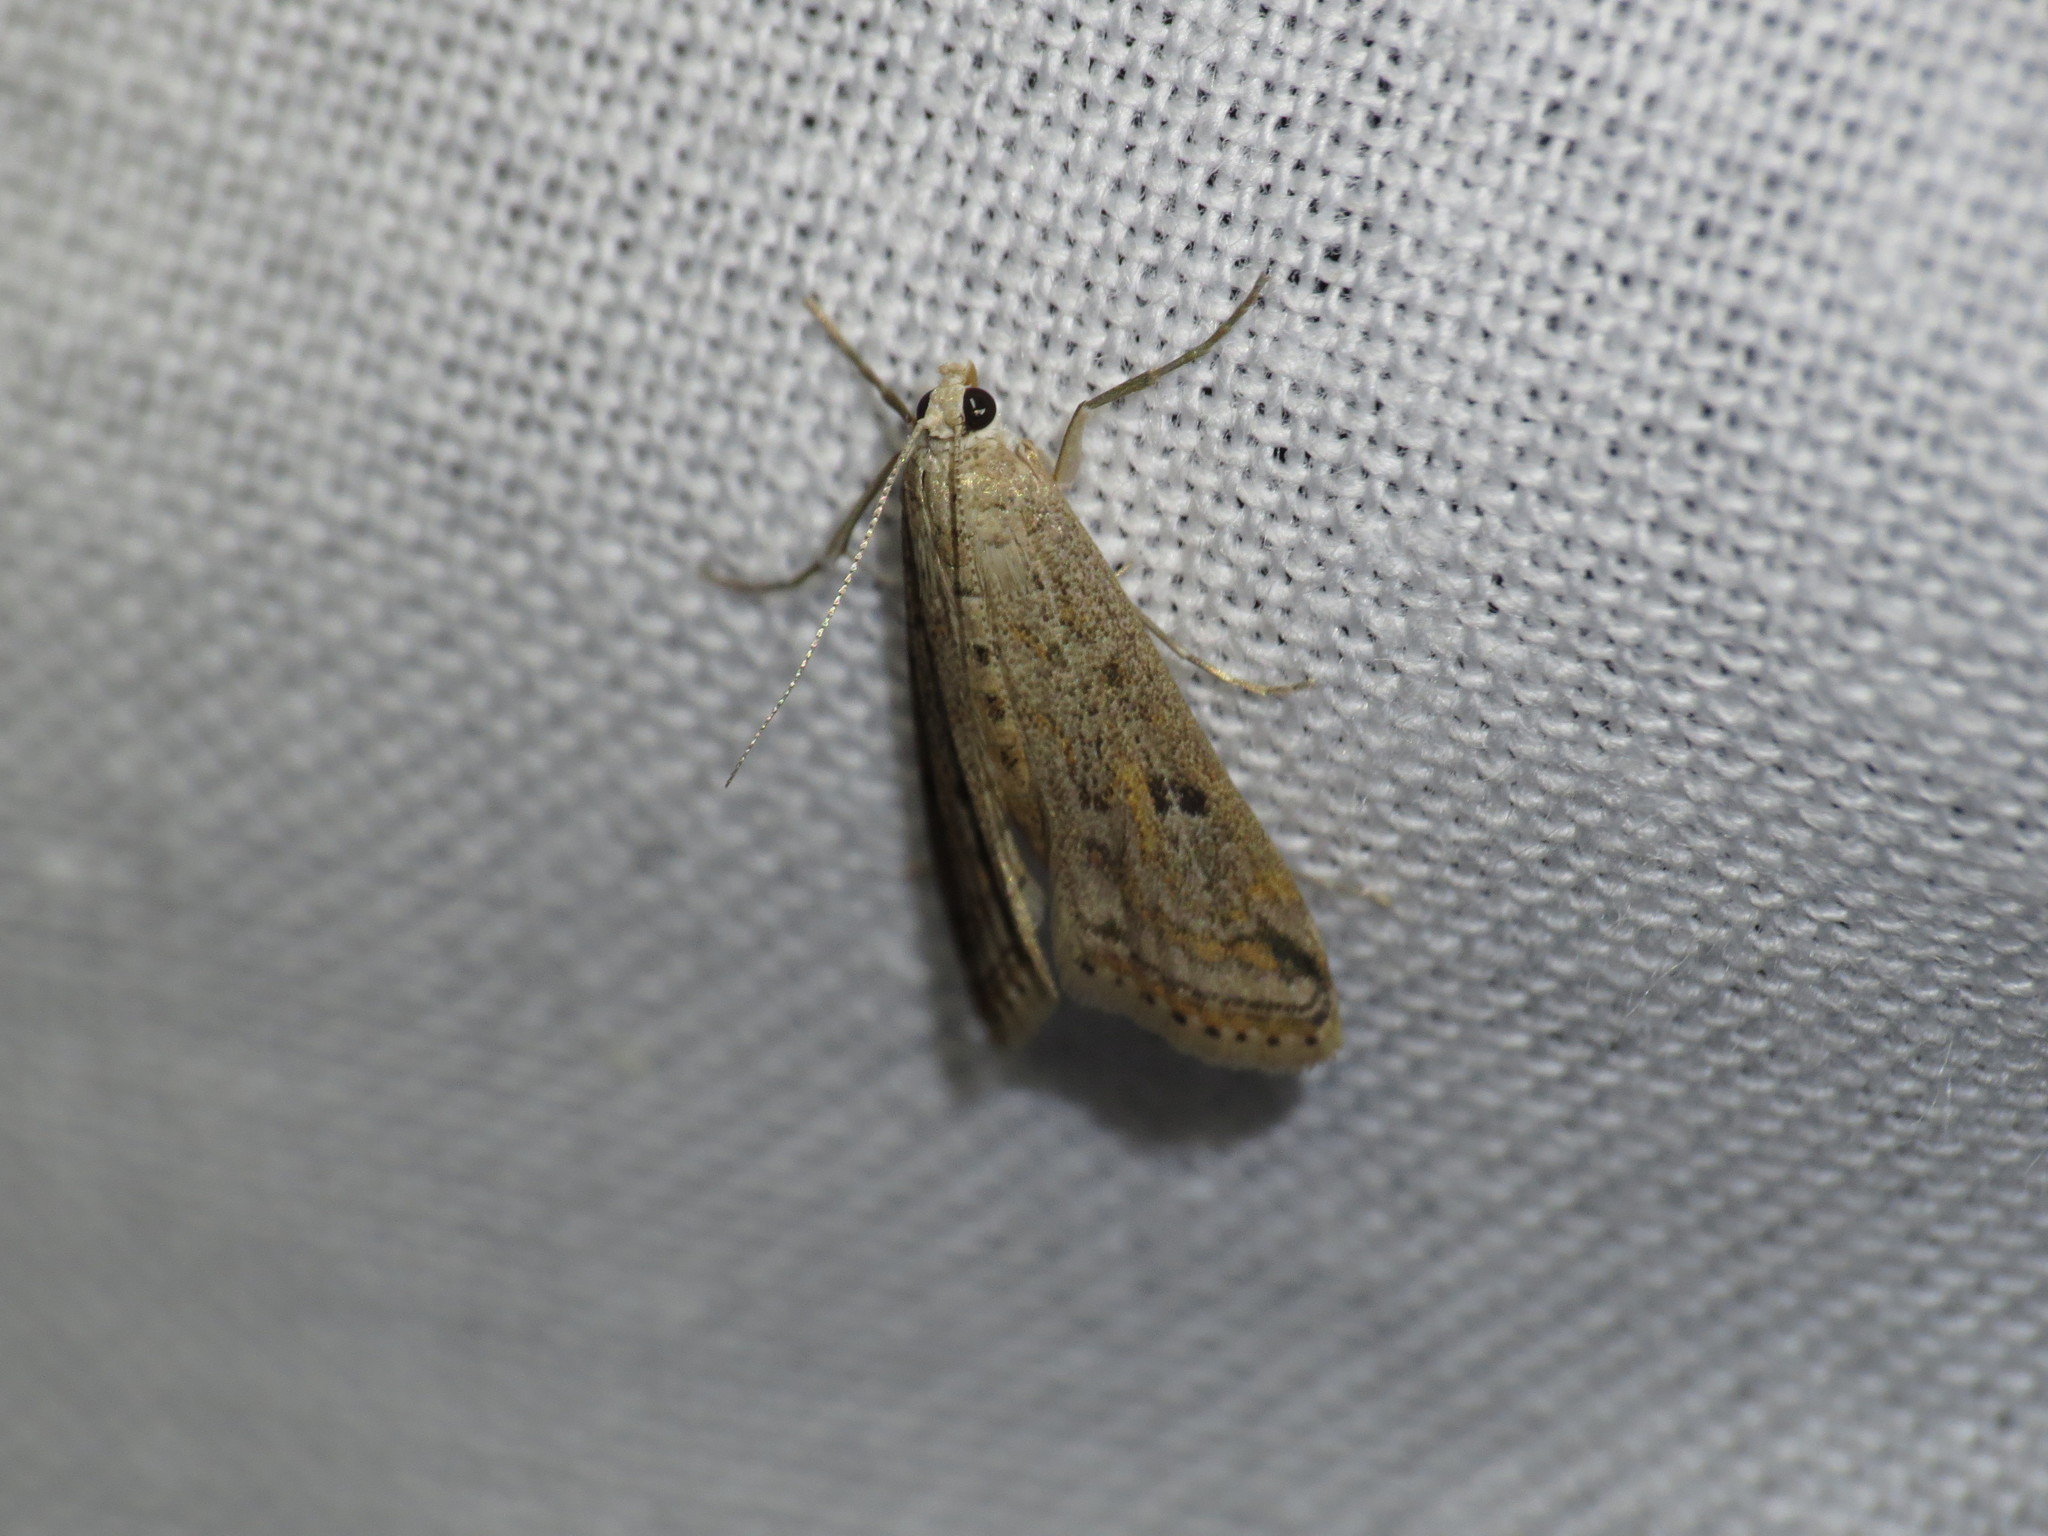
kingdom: Animalia
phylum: Arthropoda
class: Insecta
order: Lepidoptera
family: Crambidae
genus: Parapoynx
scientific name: Parapoynx allionealis
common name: Bladderwort casemaker
